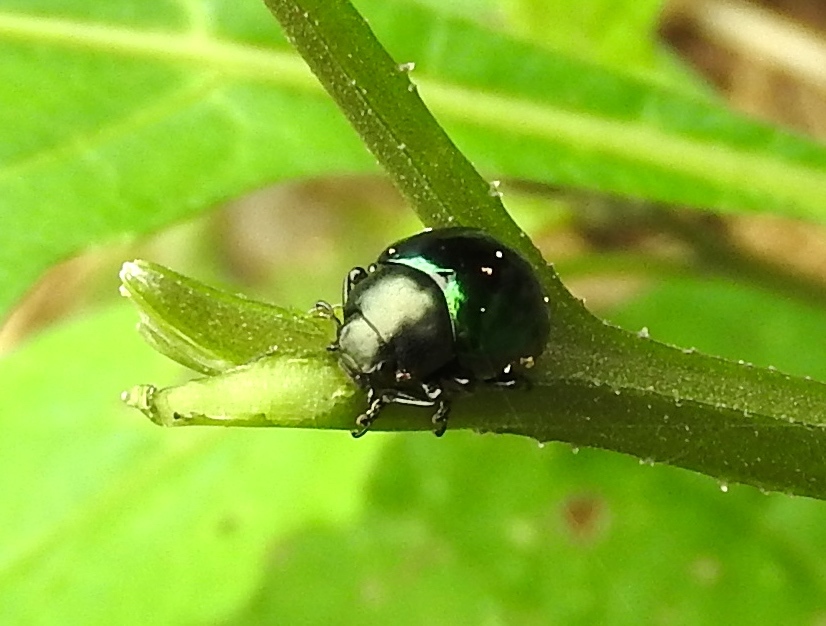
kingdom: Animalia
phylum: Arthropoda
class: Insecta
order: Coleoptera
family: Chrysomelidae
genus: Leptinotarsa
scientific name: Leptinotarsa haldemani
